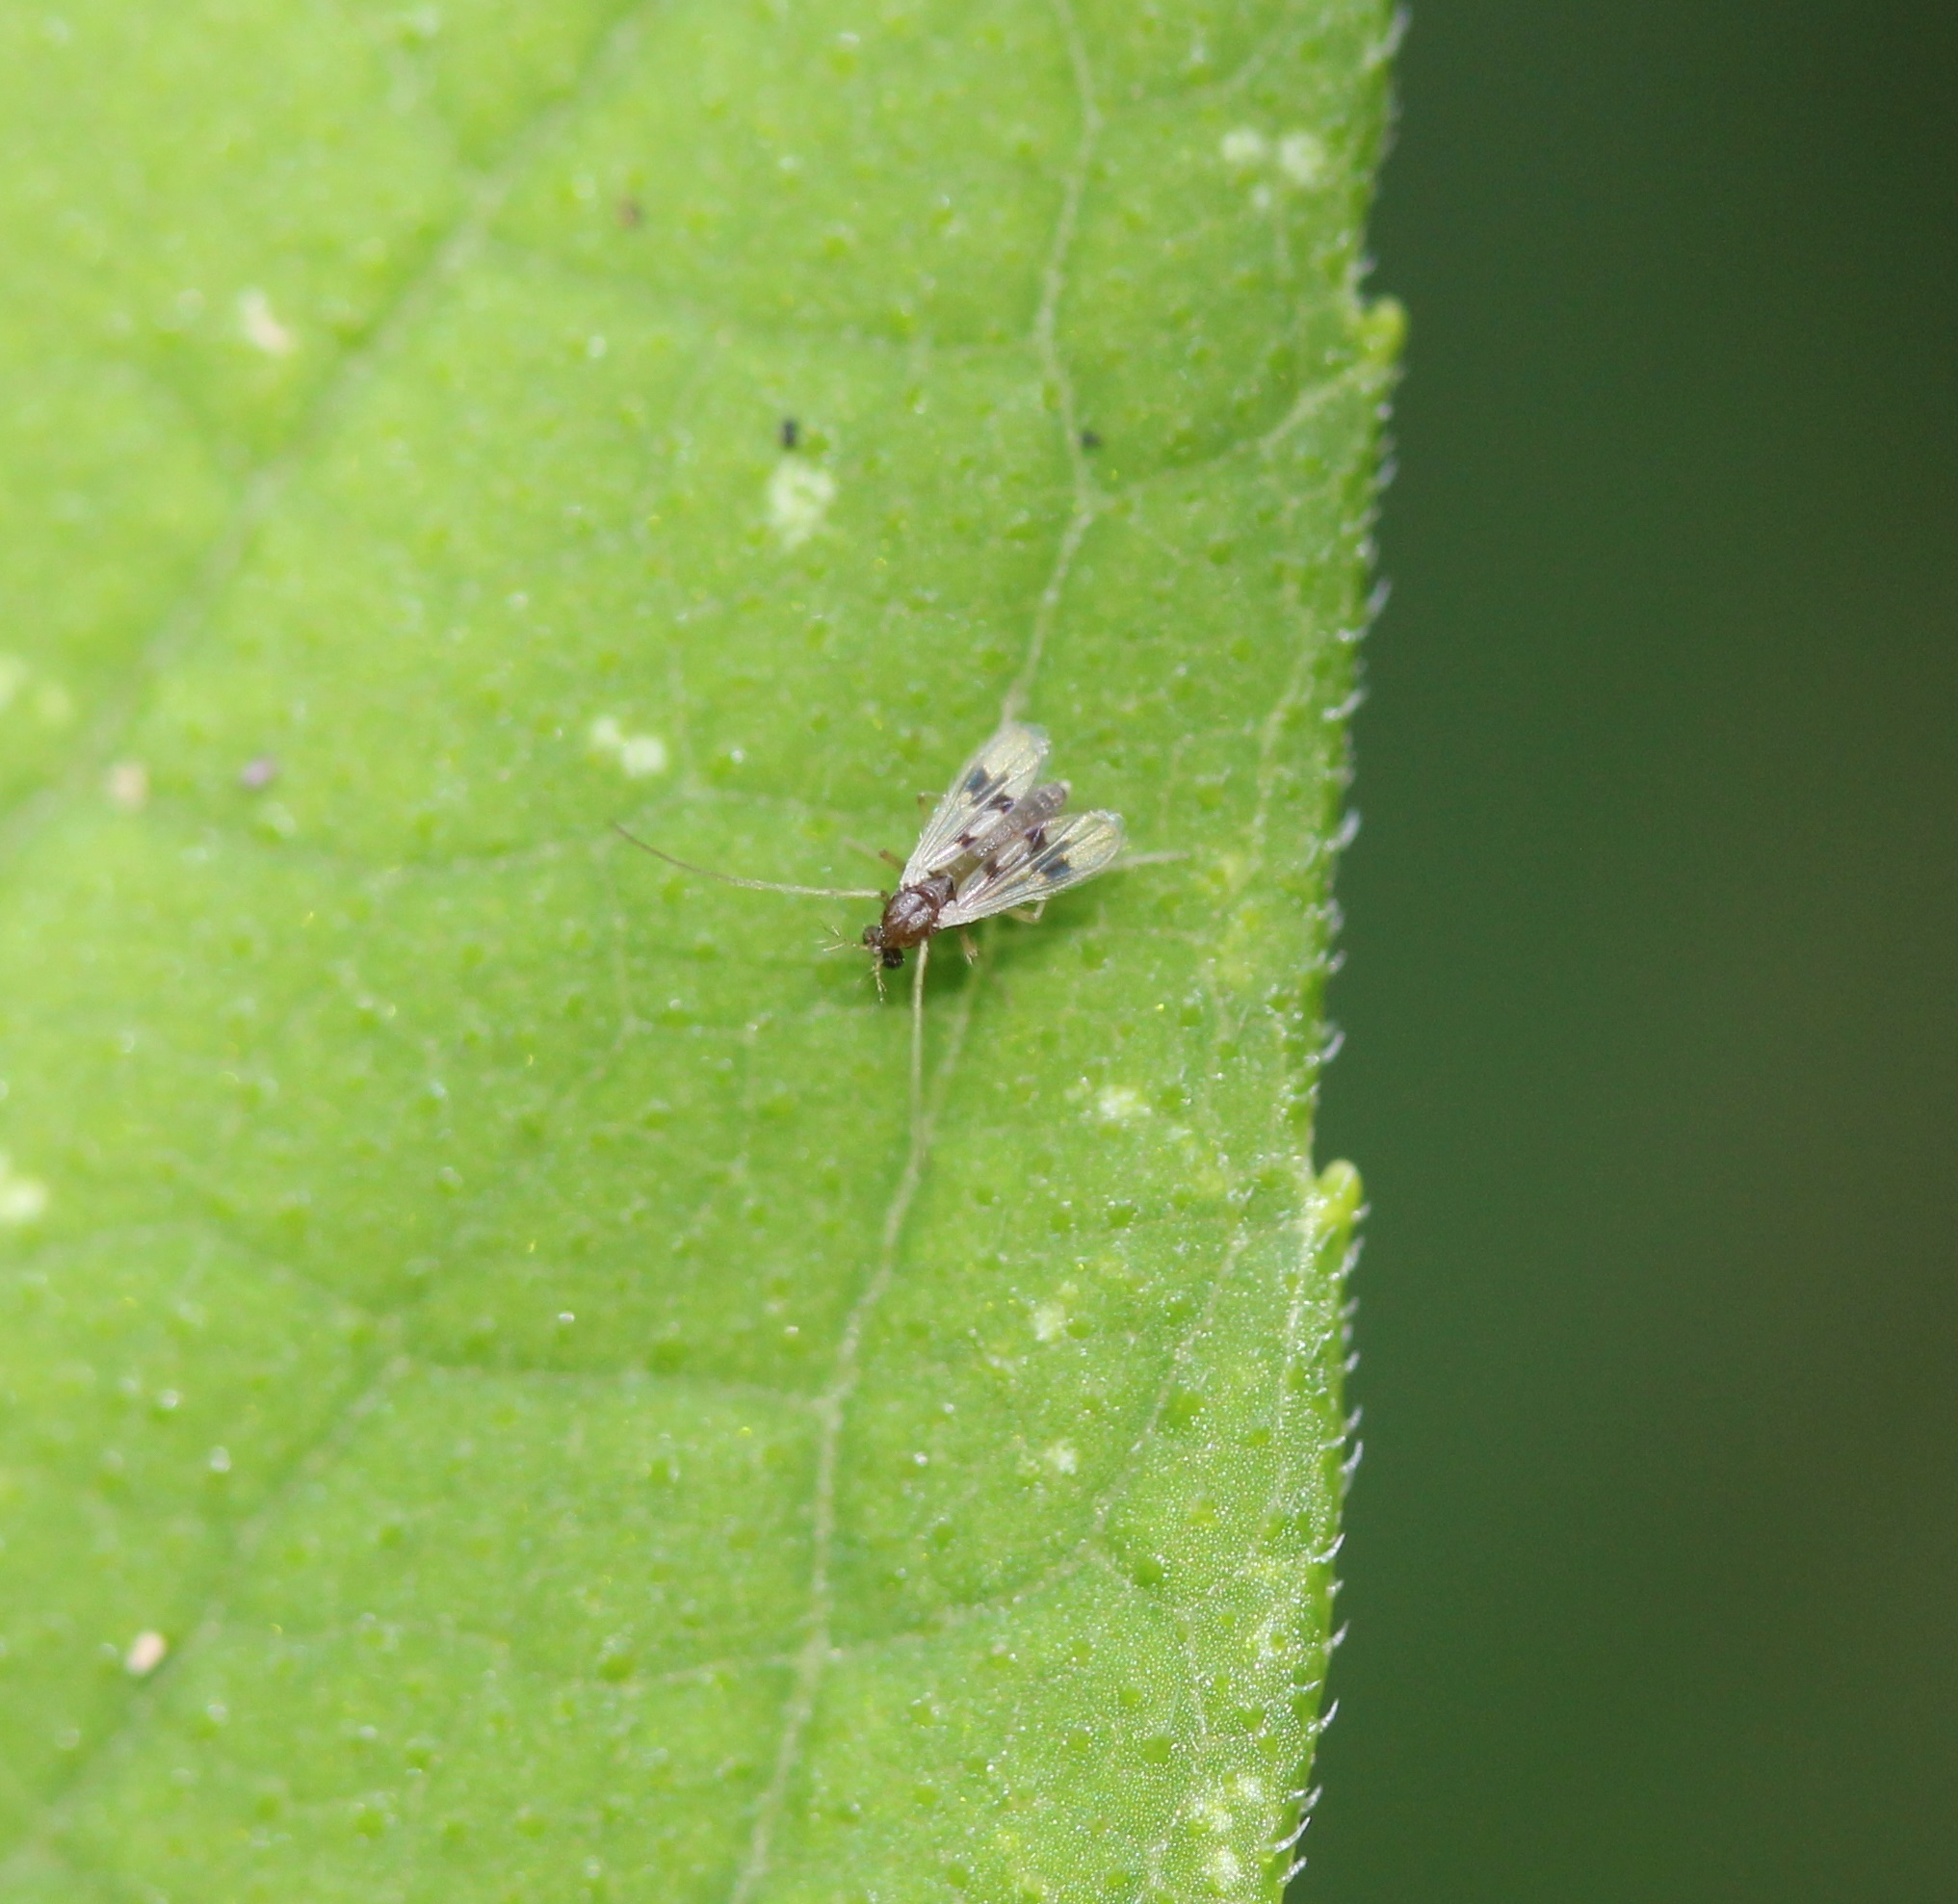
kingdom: Animalia
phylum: Arthropoda
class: Insecta
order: Diptera
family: Chironomidae
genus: Polypedilum
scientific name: Polypedilum scalaenum
